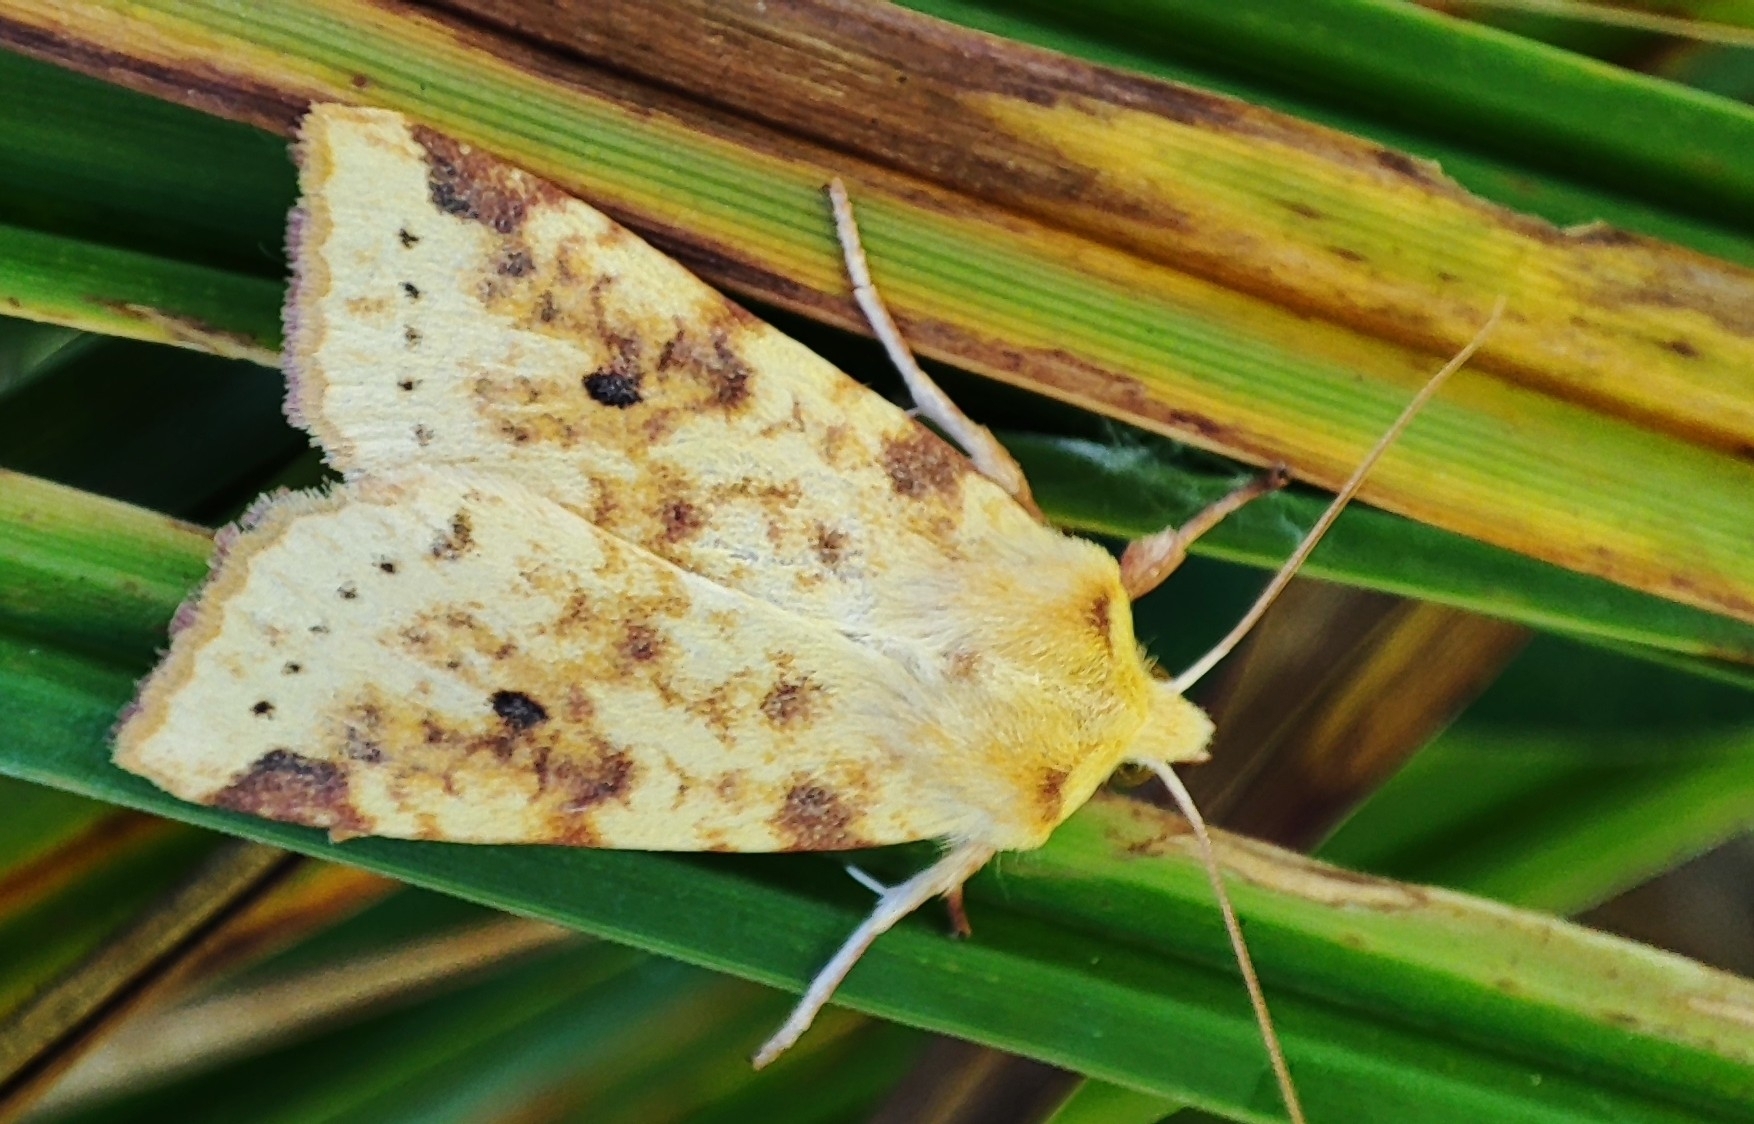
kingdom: Animalia
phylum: Arthropoda
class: Insecta
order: Lepidoptera
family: Noctuidae
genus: Xanthia
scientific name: Xanthia icteritia
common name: The sallow
